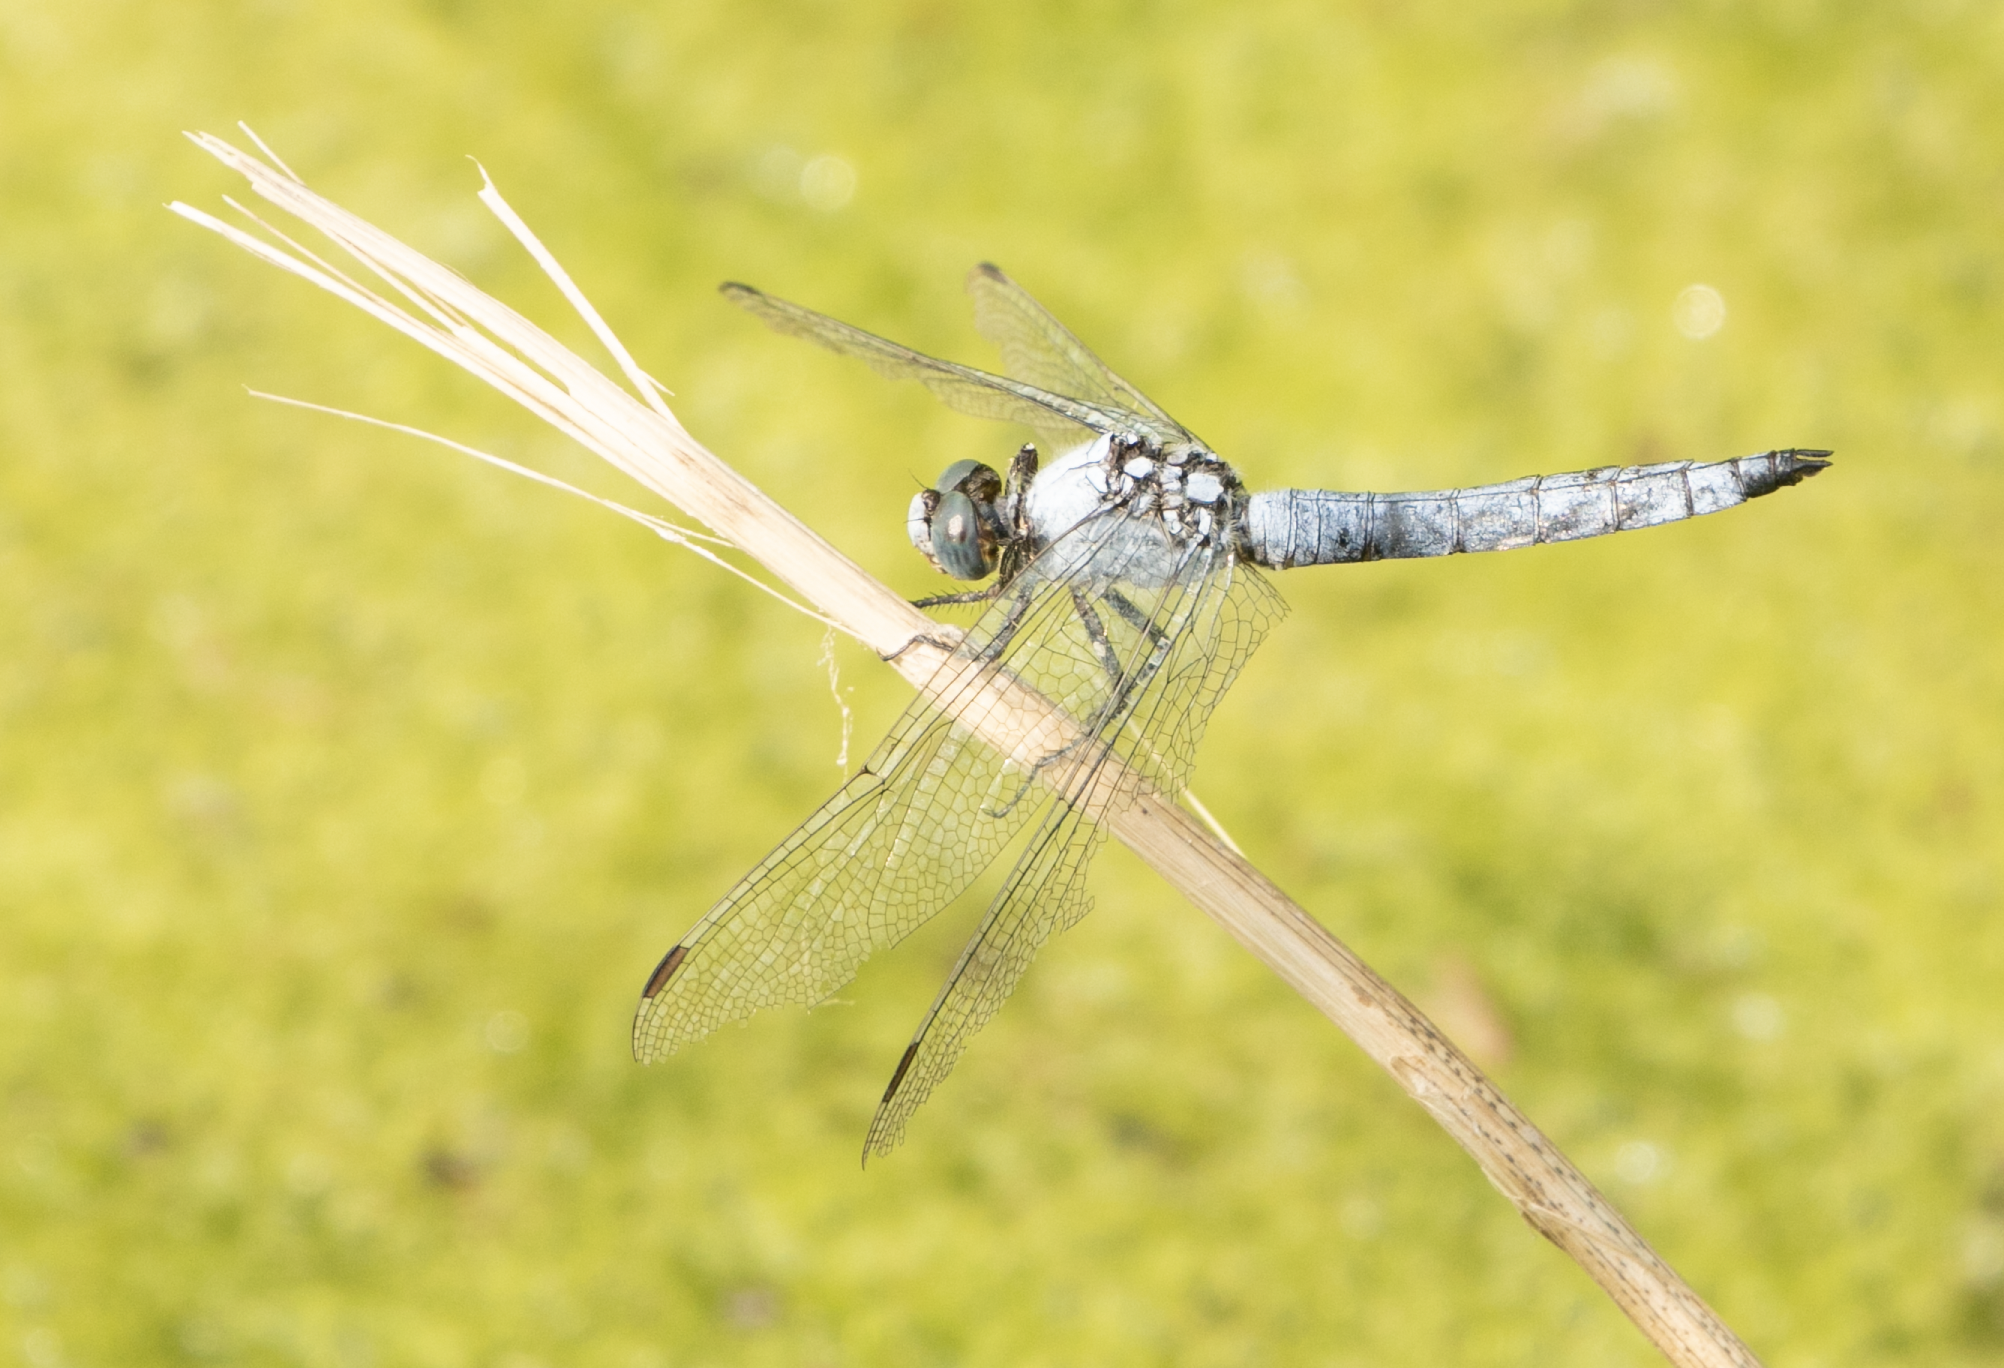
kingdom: Animalia
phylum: Arthropoda
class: Insecta
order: Odonata
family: Libellulidae
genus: Orthetrum
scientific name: Orthetrum brunneum
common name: Southern skimmer
